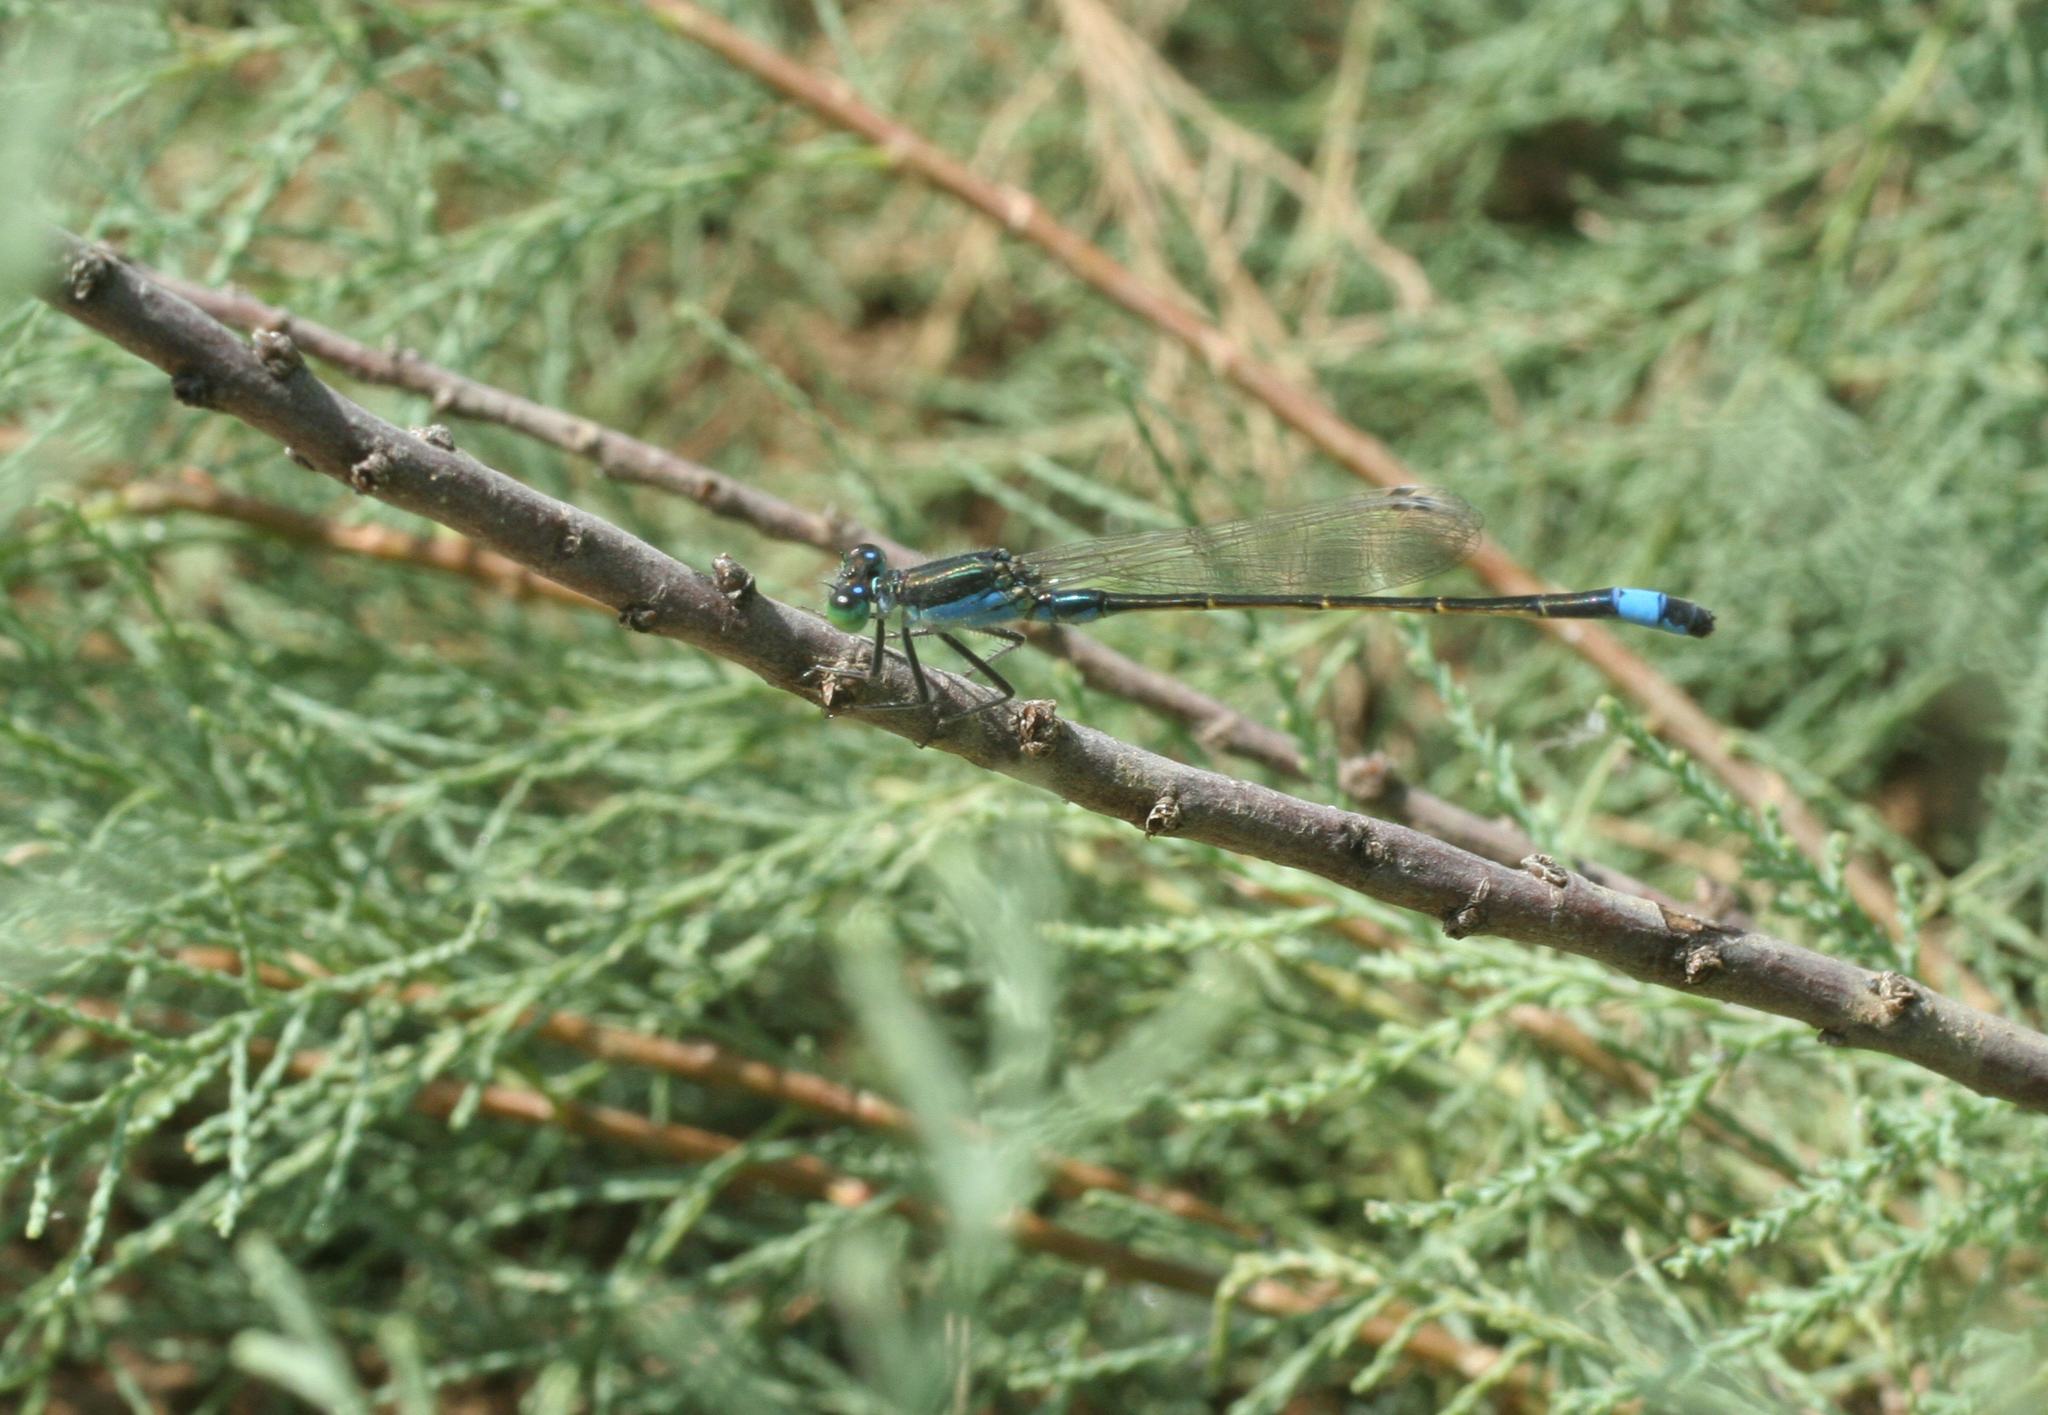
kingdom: Animalia
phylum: Arthropoda
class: Insecta
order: Odonata
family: Coenagrionidae
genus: Ischnura
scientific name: Ischnura fountaineae
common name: Oasis bluetail
